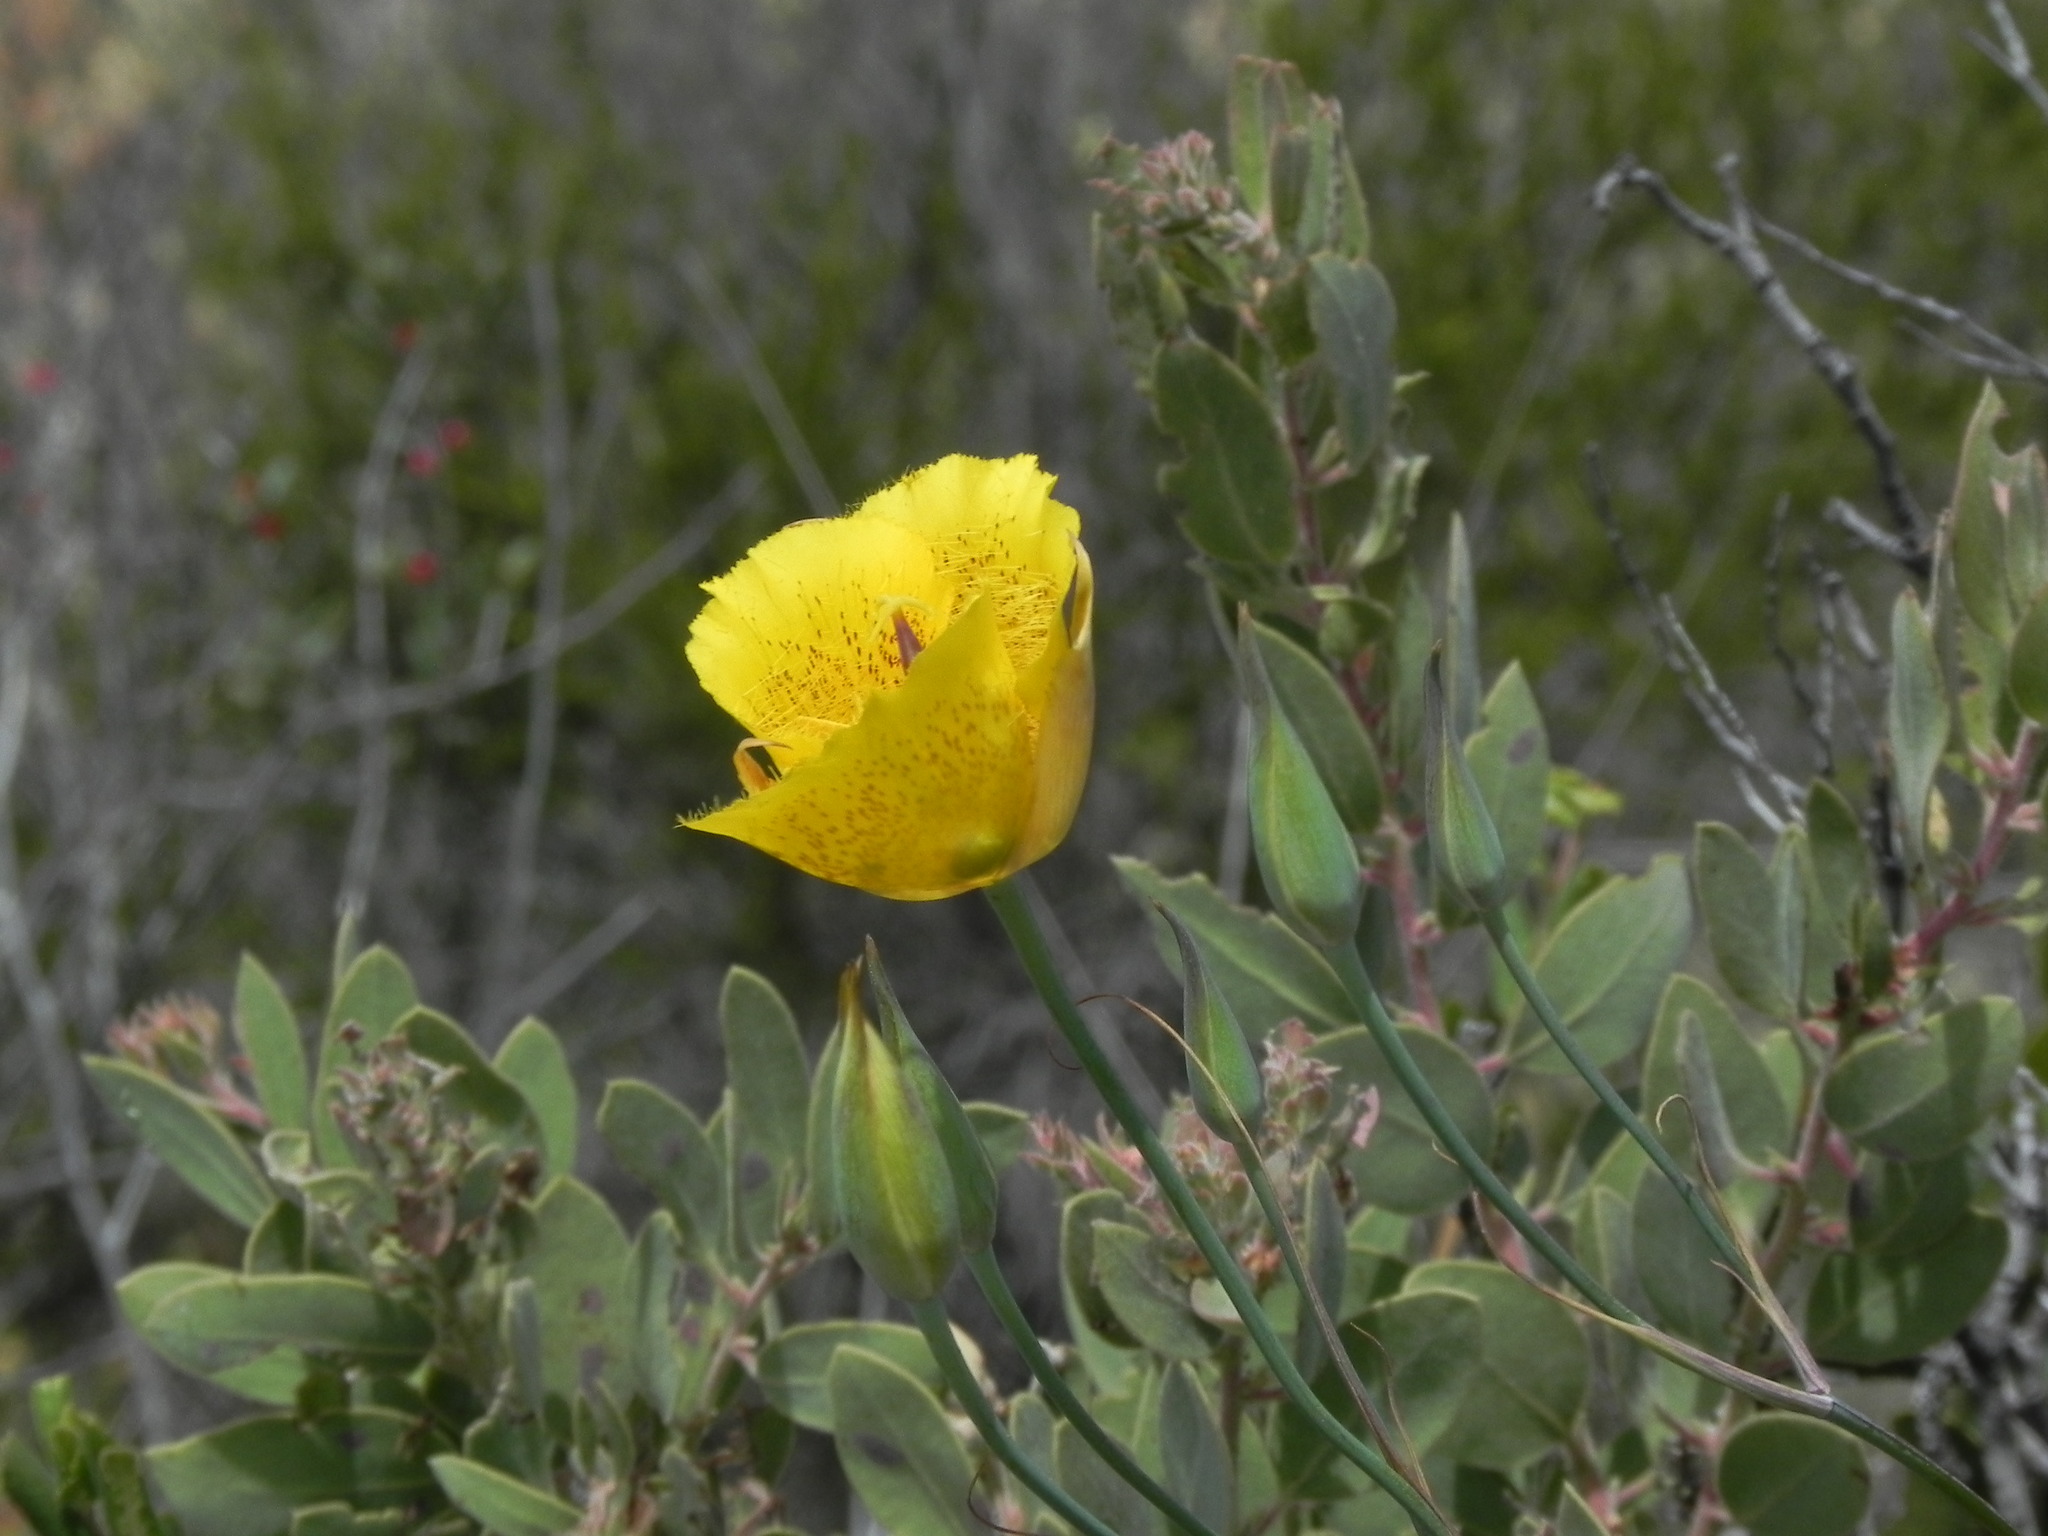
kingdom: Plantae
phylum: Tracheophyta
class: Liliopsida
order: Liliales
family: Liliaceae
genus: Calochortus
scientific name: Calochortus weedii
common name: Weed's mariposa-lily
